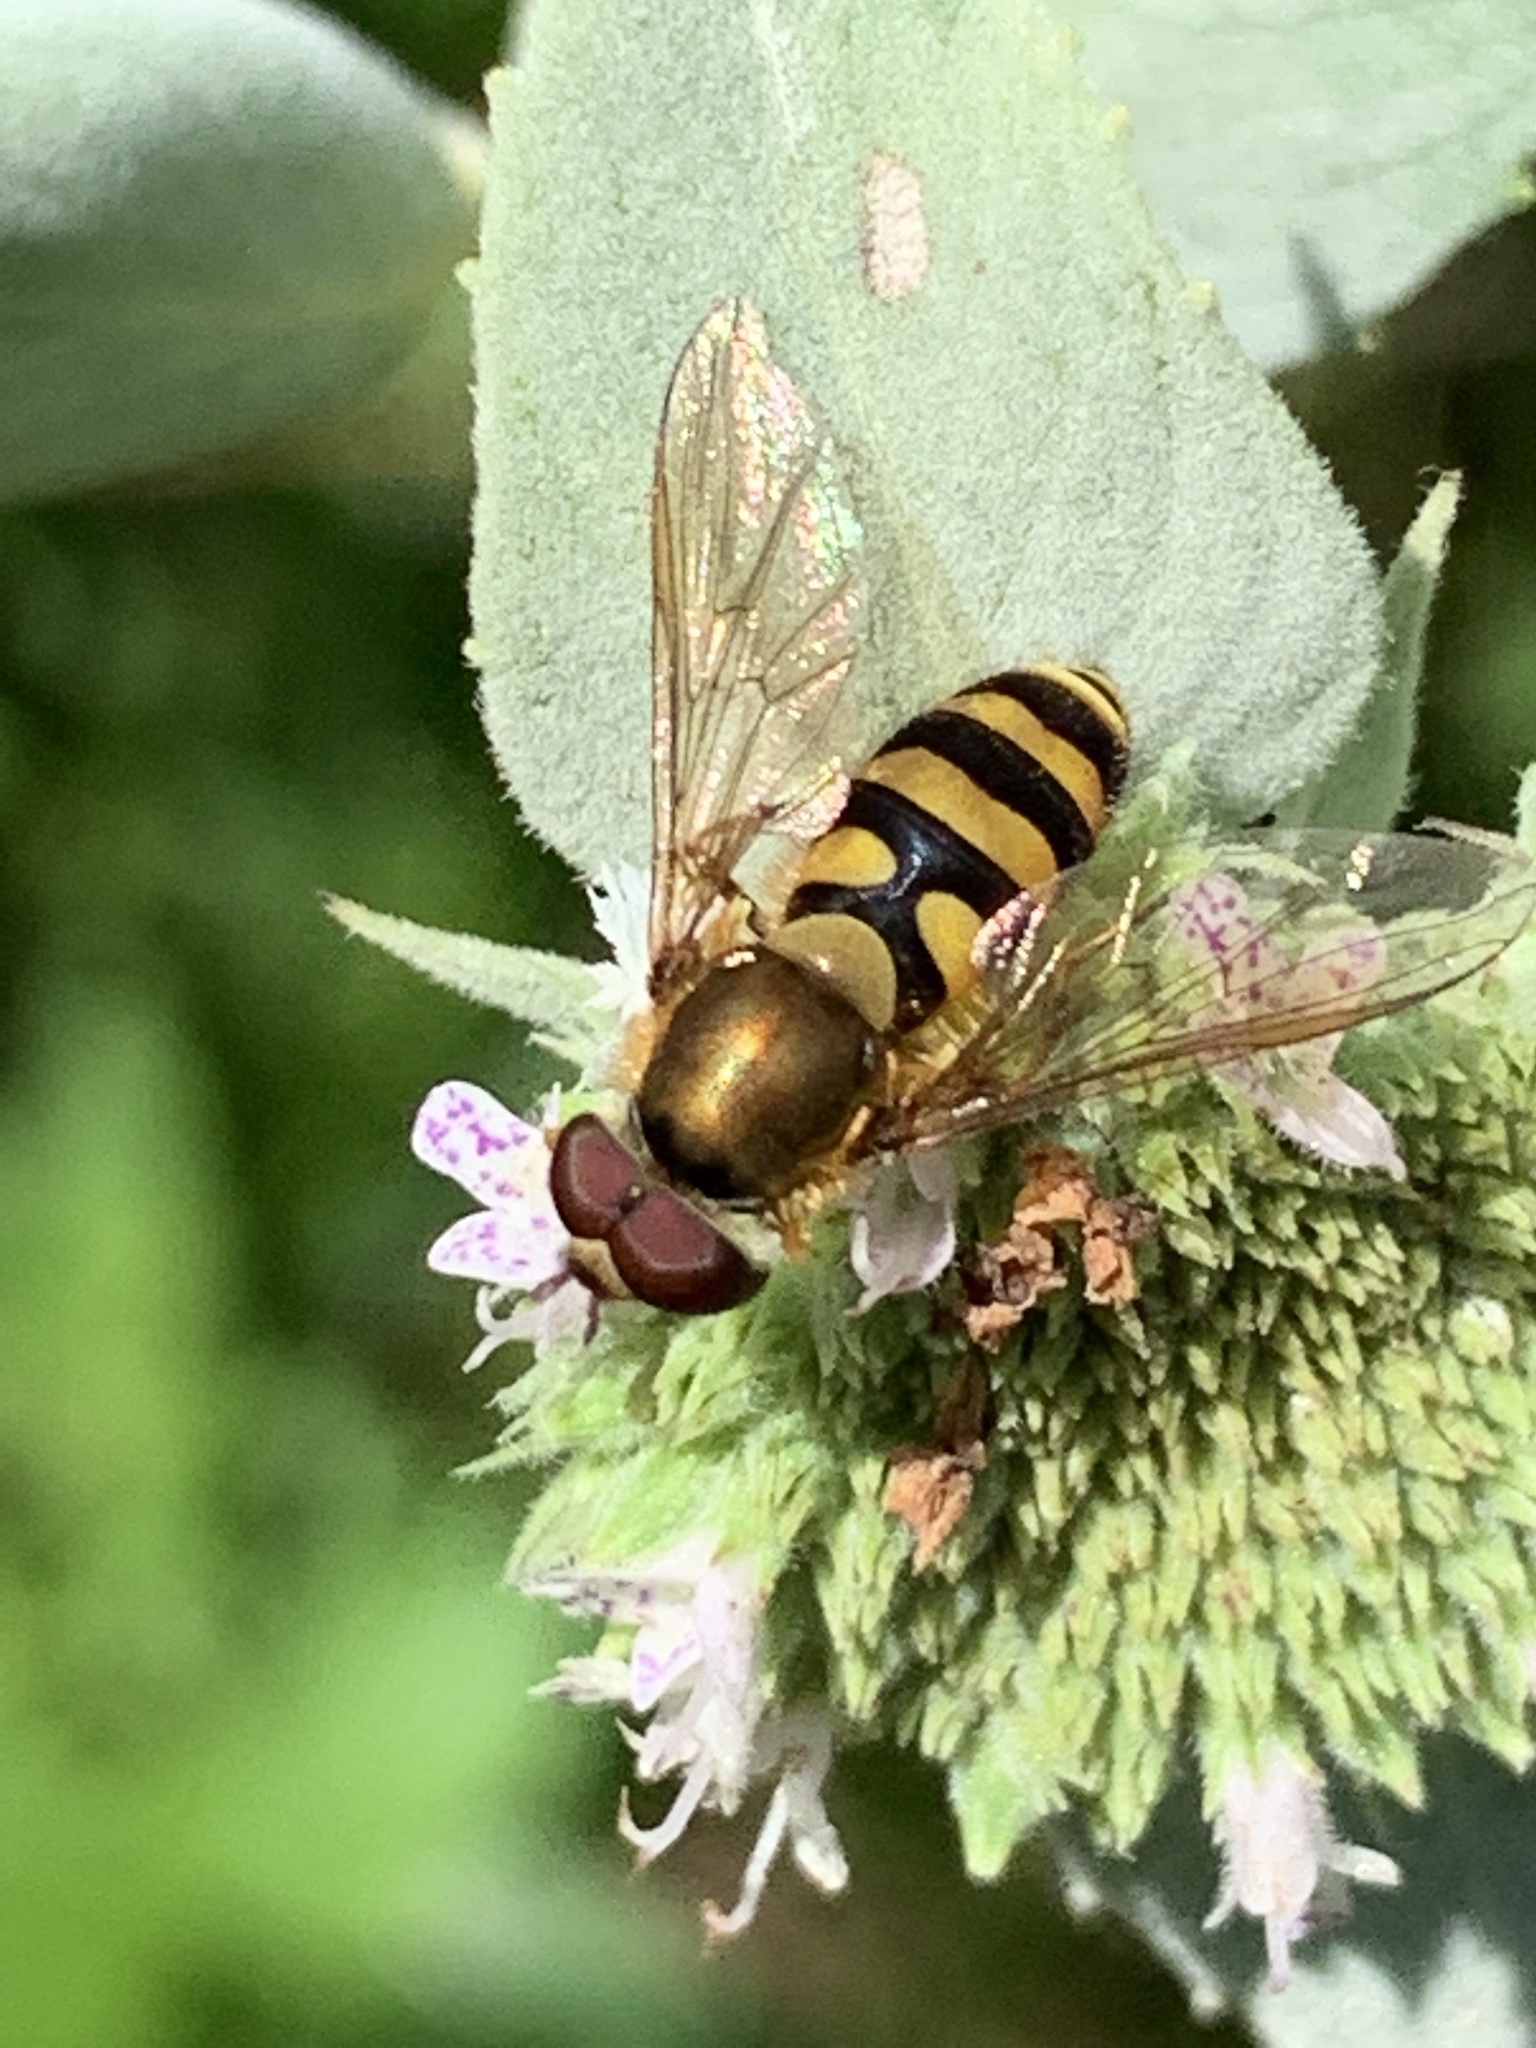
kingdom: Animalia
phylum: Arthropoda
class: Insecta
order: Diptera
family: Syrphidae
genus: Syrphus
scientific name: Syrphus
